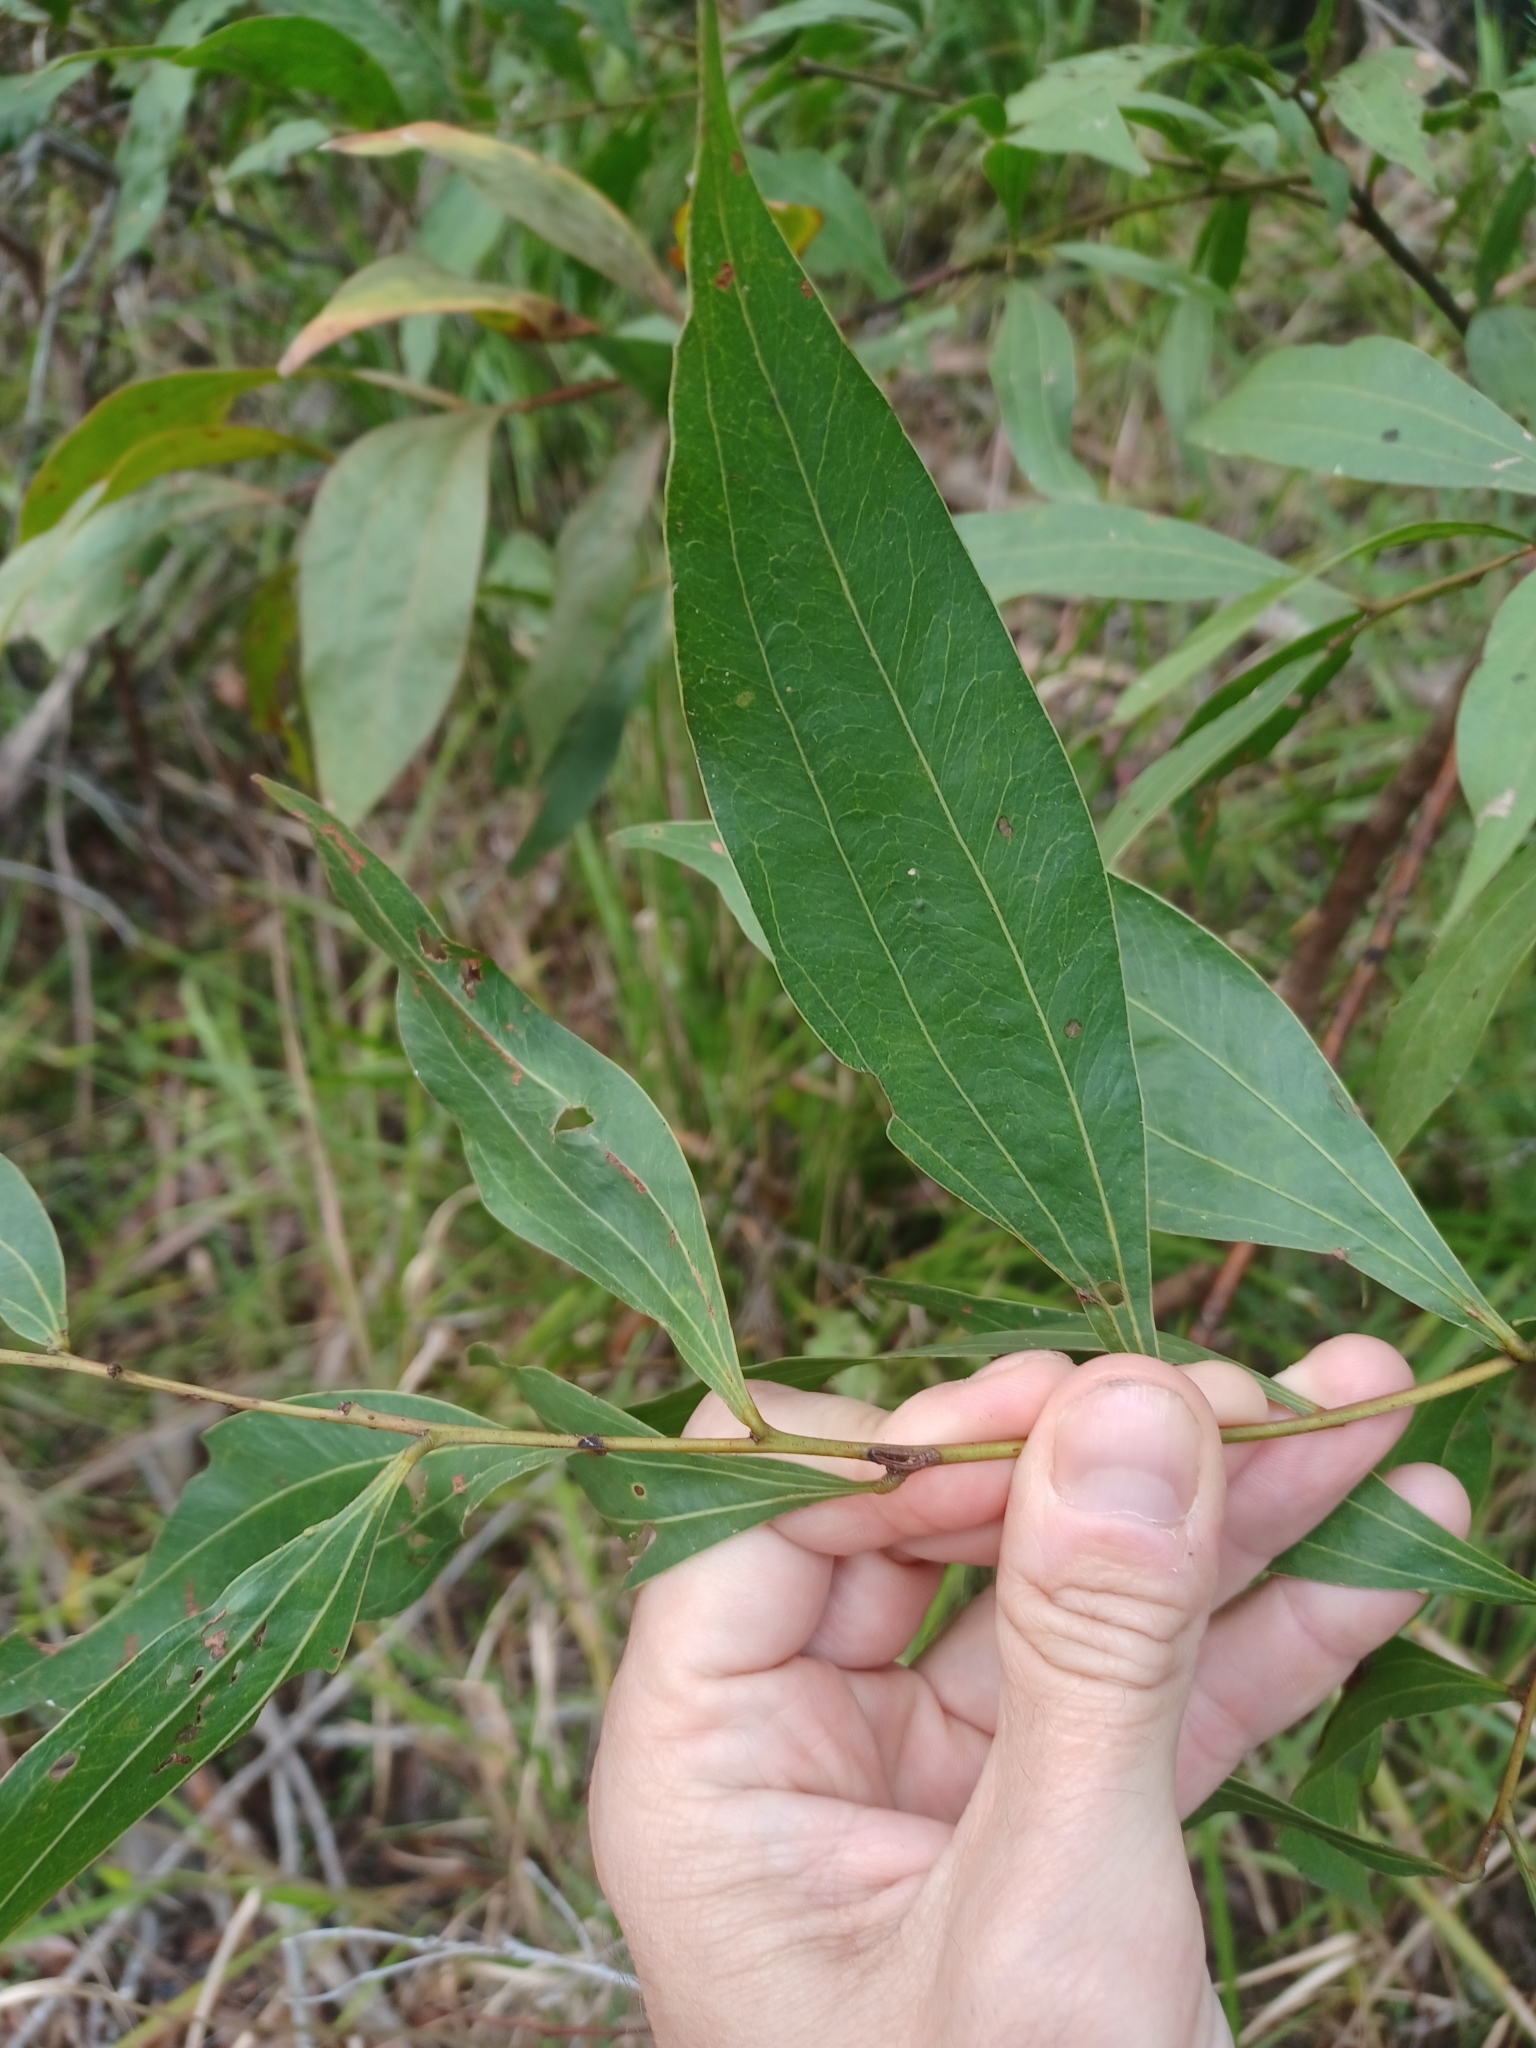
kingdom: Plantae
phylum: Tracheophyta
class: Magnoliopsida
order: Fabales
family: Fabaceae
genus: Acacia
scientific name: Acacia binervata
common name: Two-veined hickory
